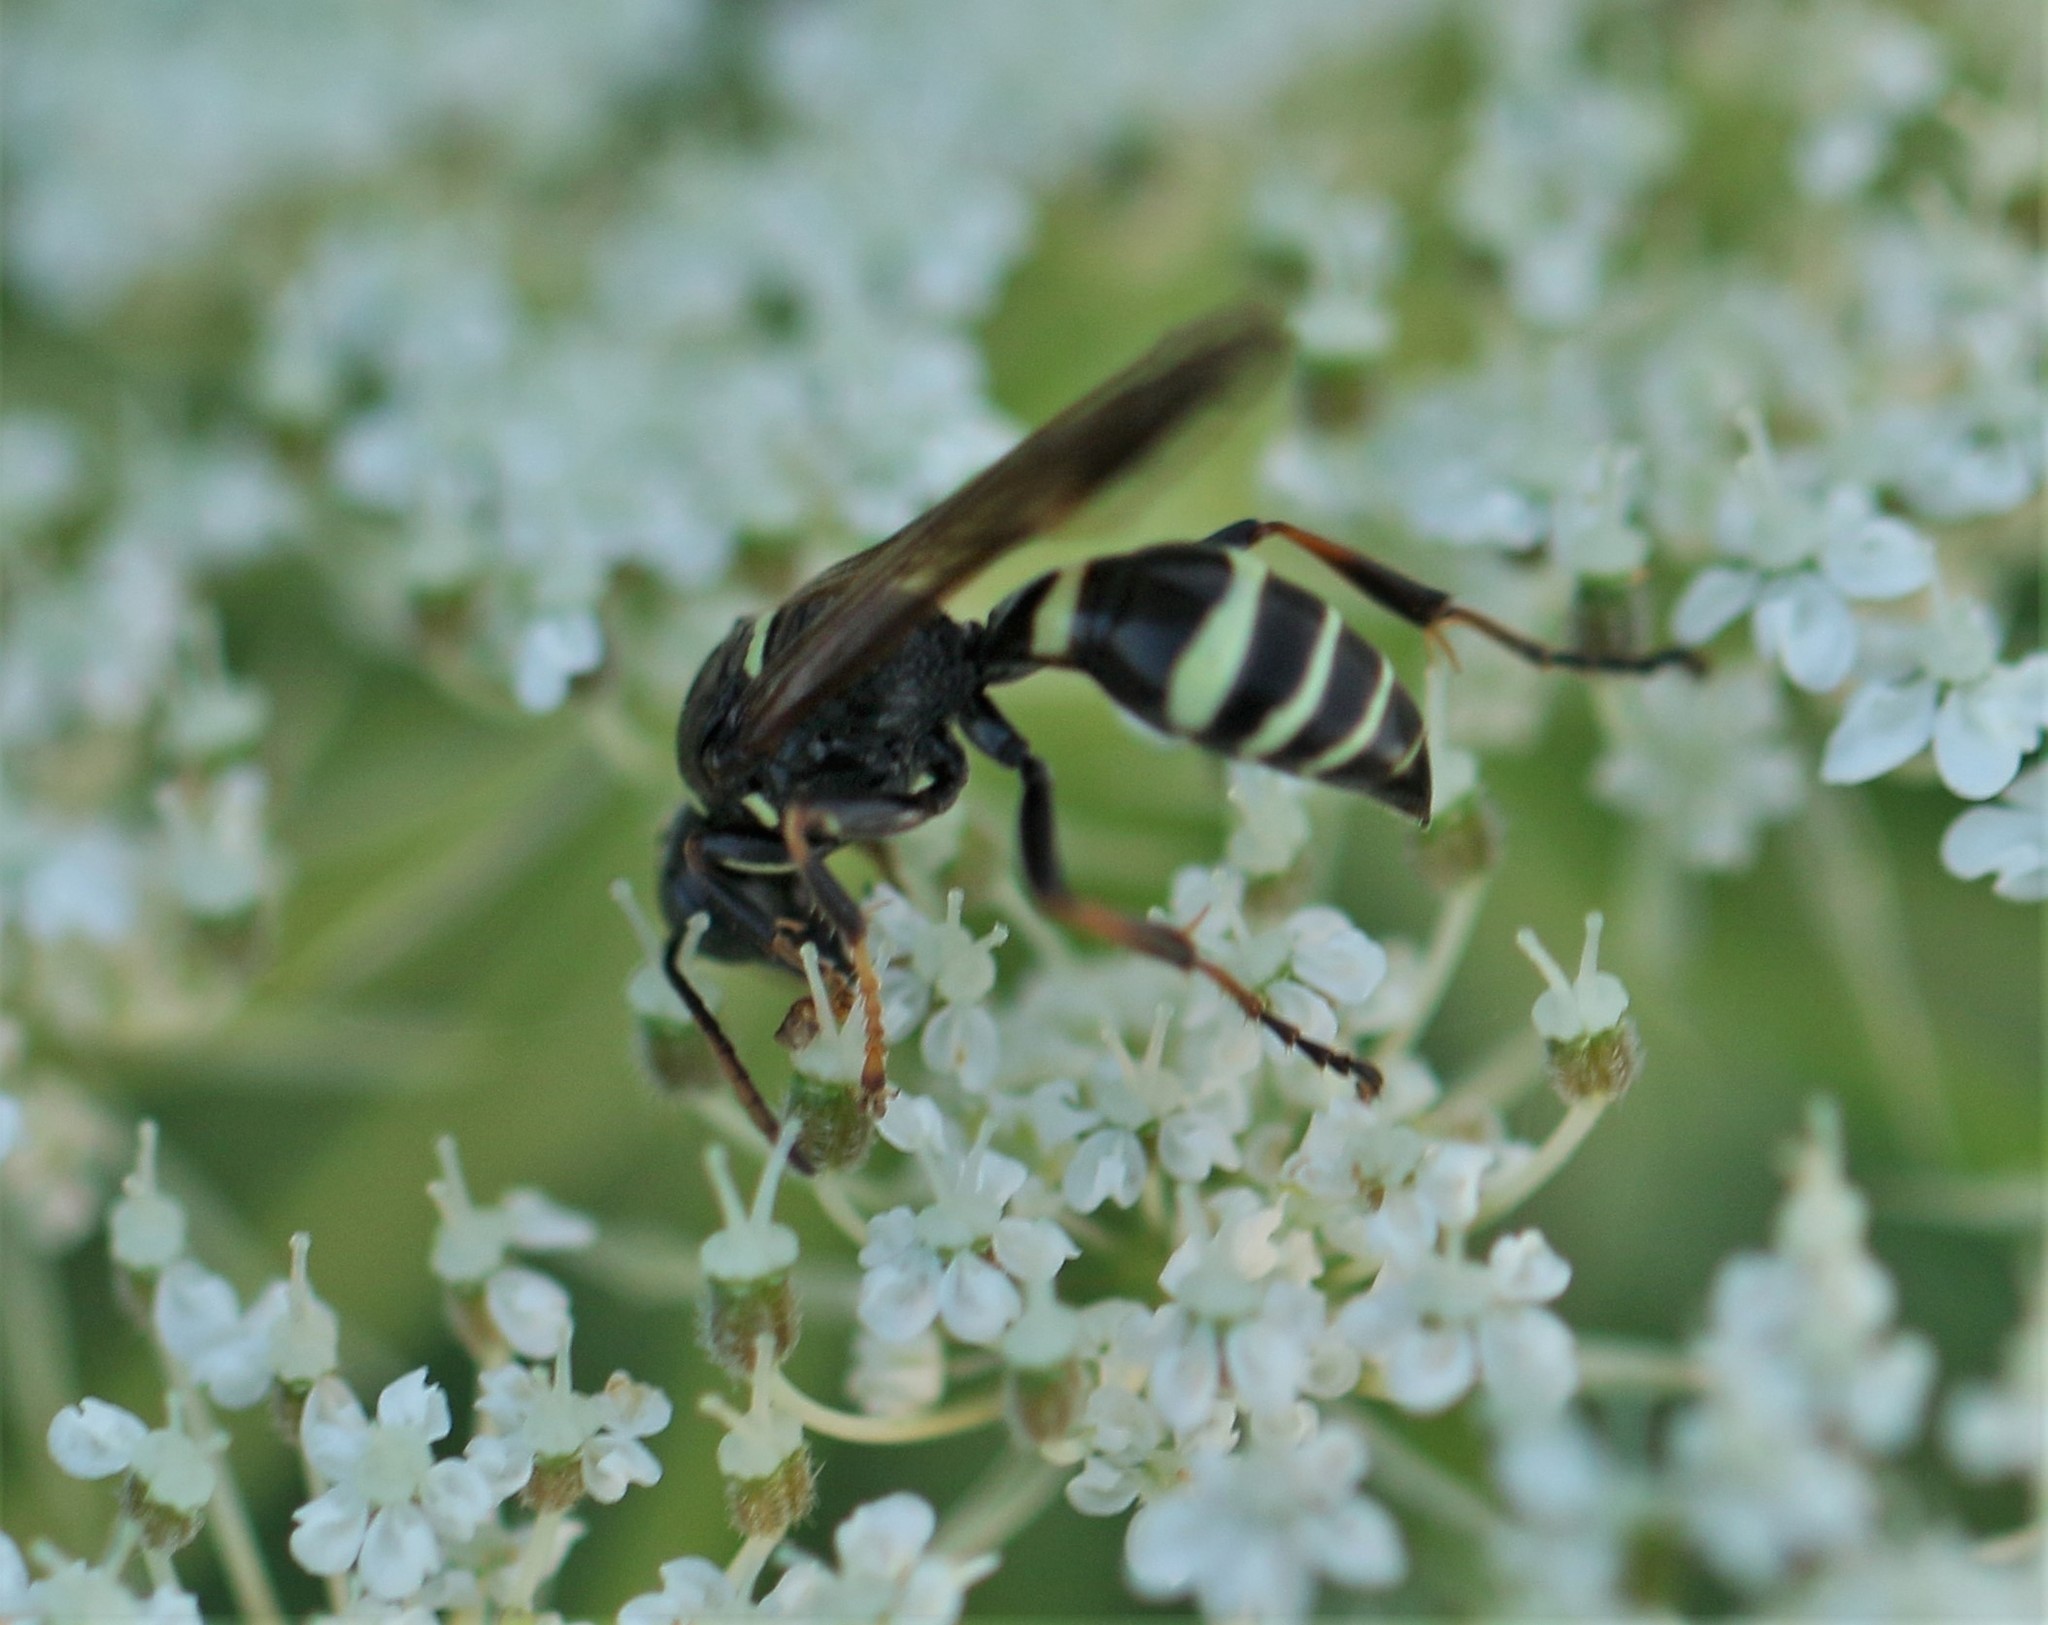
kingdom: Animalia
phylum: Arthropoda
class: Insecta
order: Hymenoptera
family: Crabronidae
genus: Gorytes
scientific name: Gorytes
